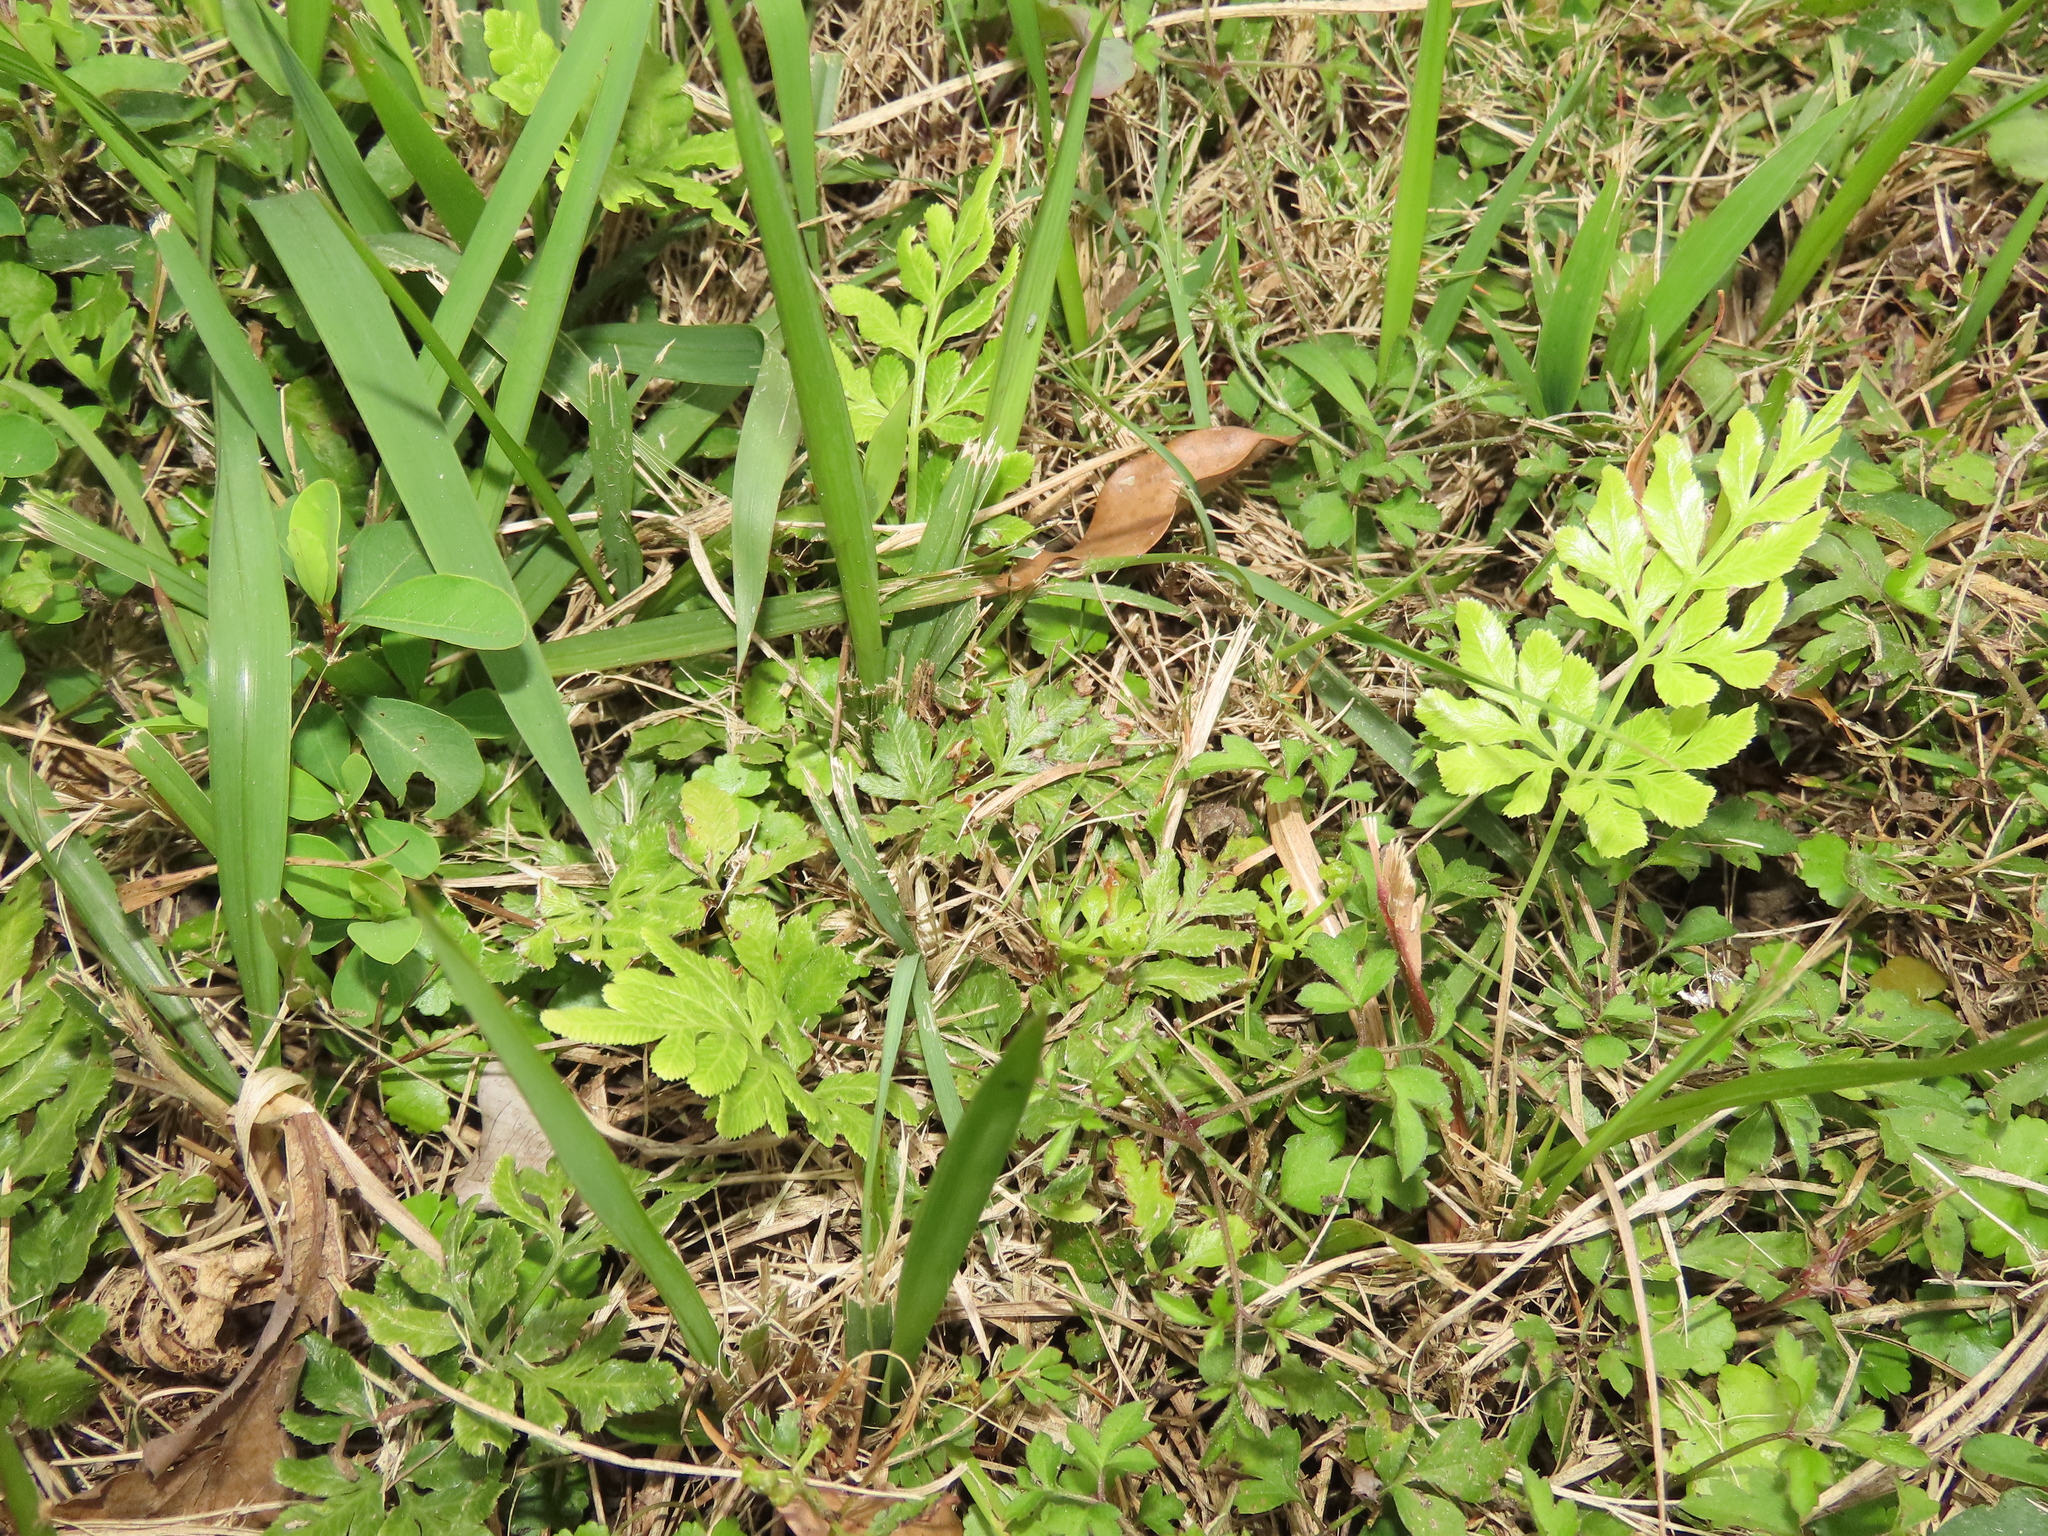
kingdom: Plantae
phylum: Tracheophyta
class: Polypodiopsida
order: Polypodiales
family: Pteridaceae
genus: Pteris
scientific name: Pteris ensiformis
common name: Sword brake
